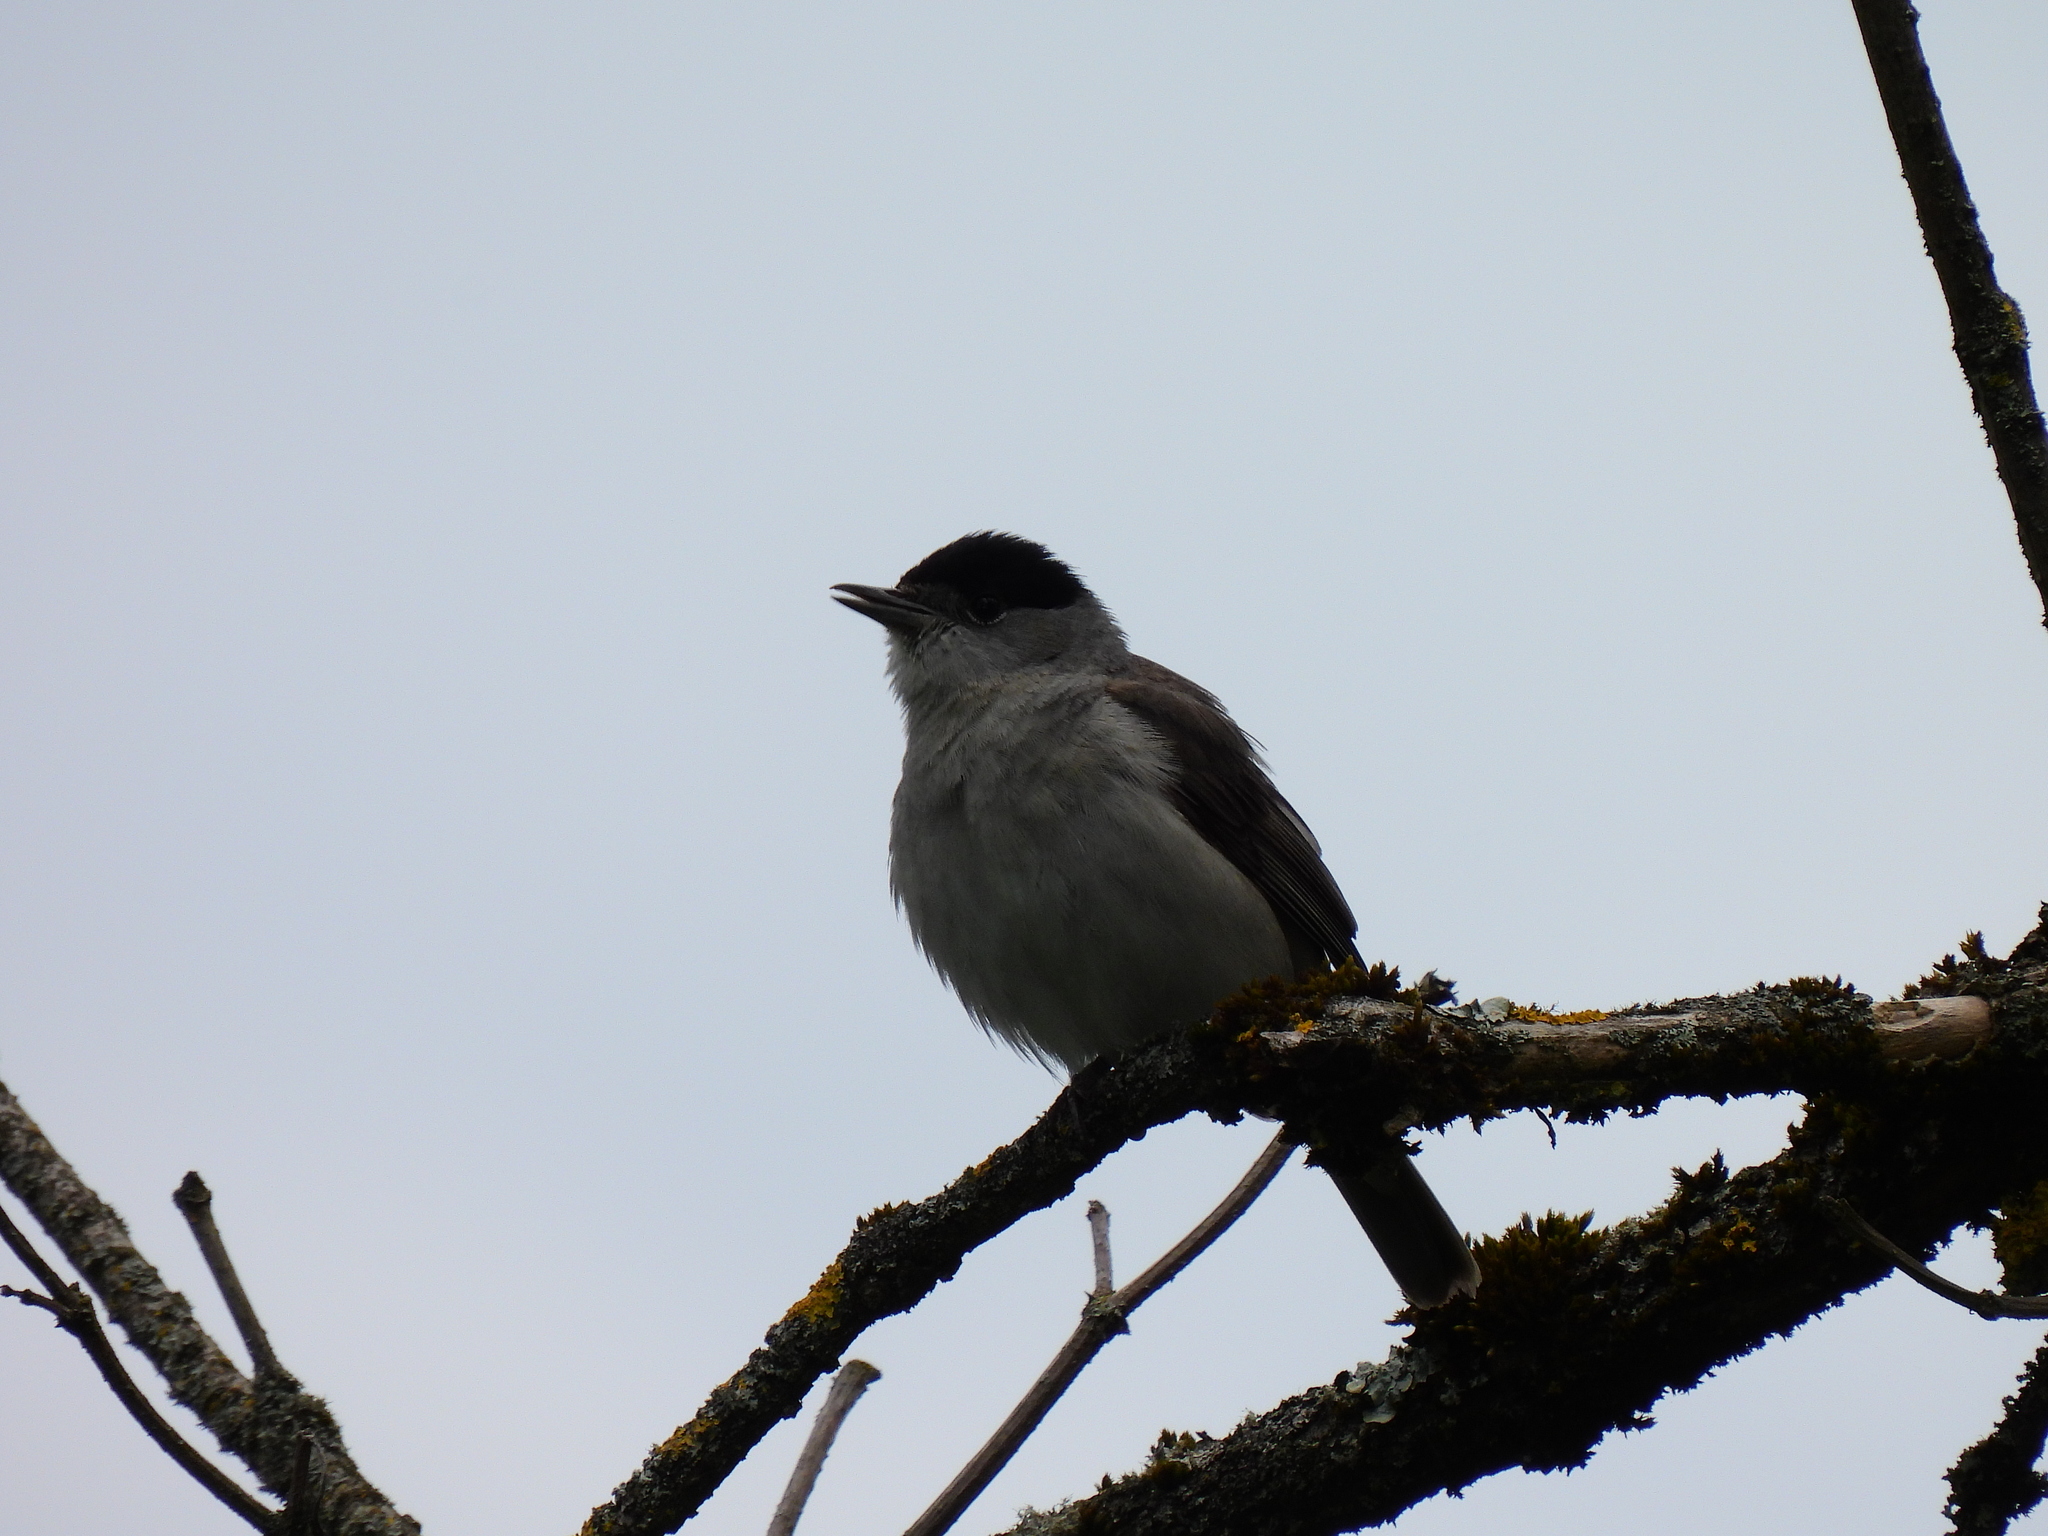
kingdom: Animalia
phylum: Chordata
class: Aves
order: Passeriformes
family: Sylviidae
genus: Sylvia
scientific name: Sylvia atricapilla
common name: Eurasian blackcap
